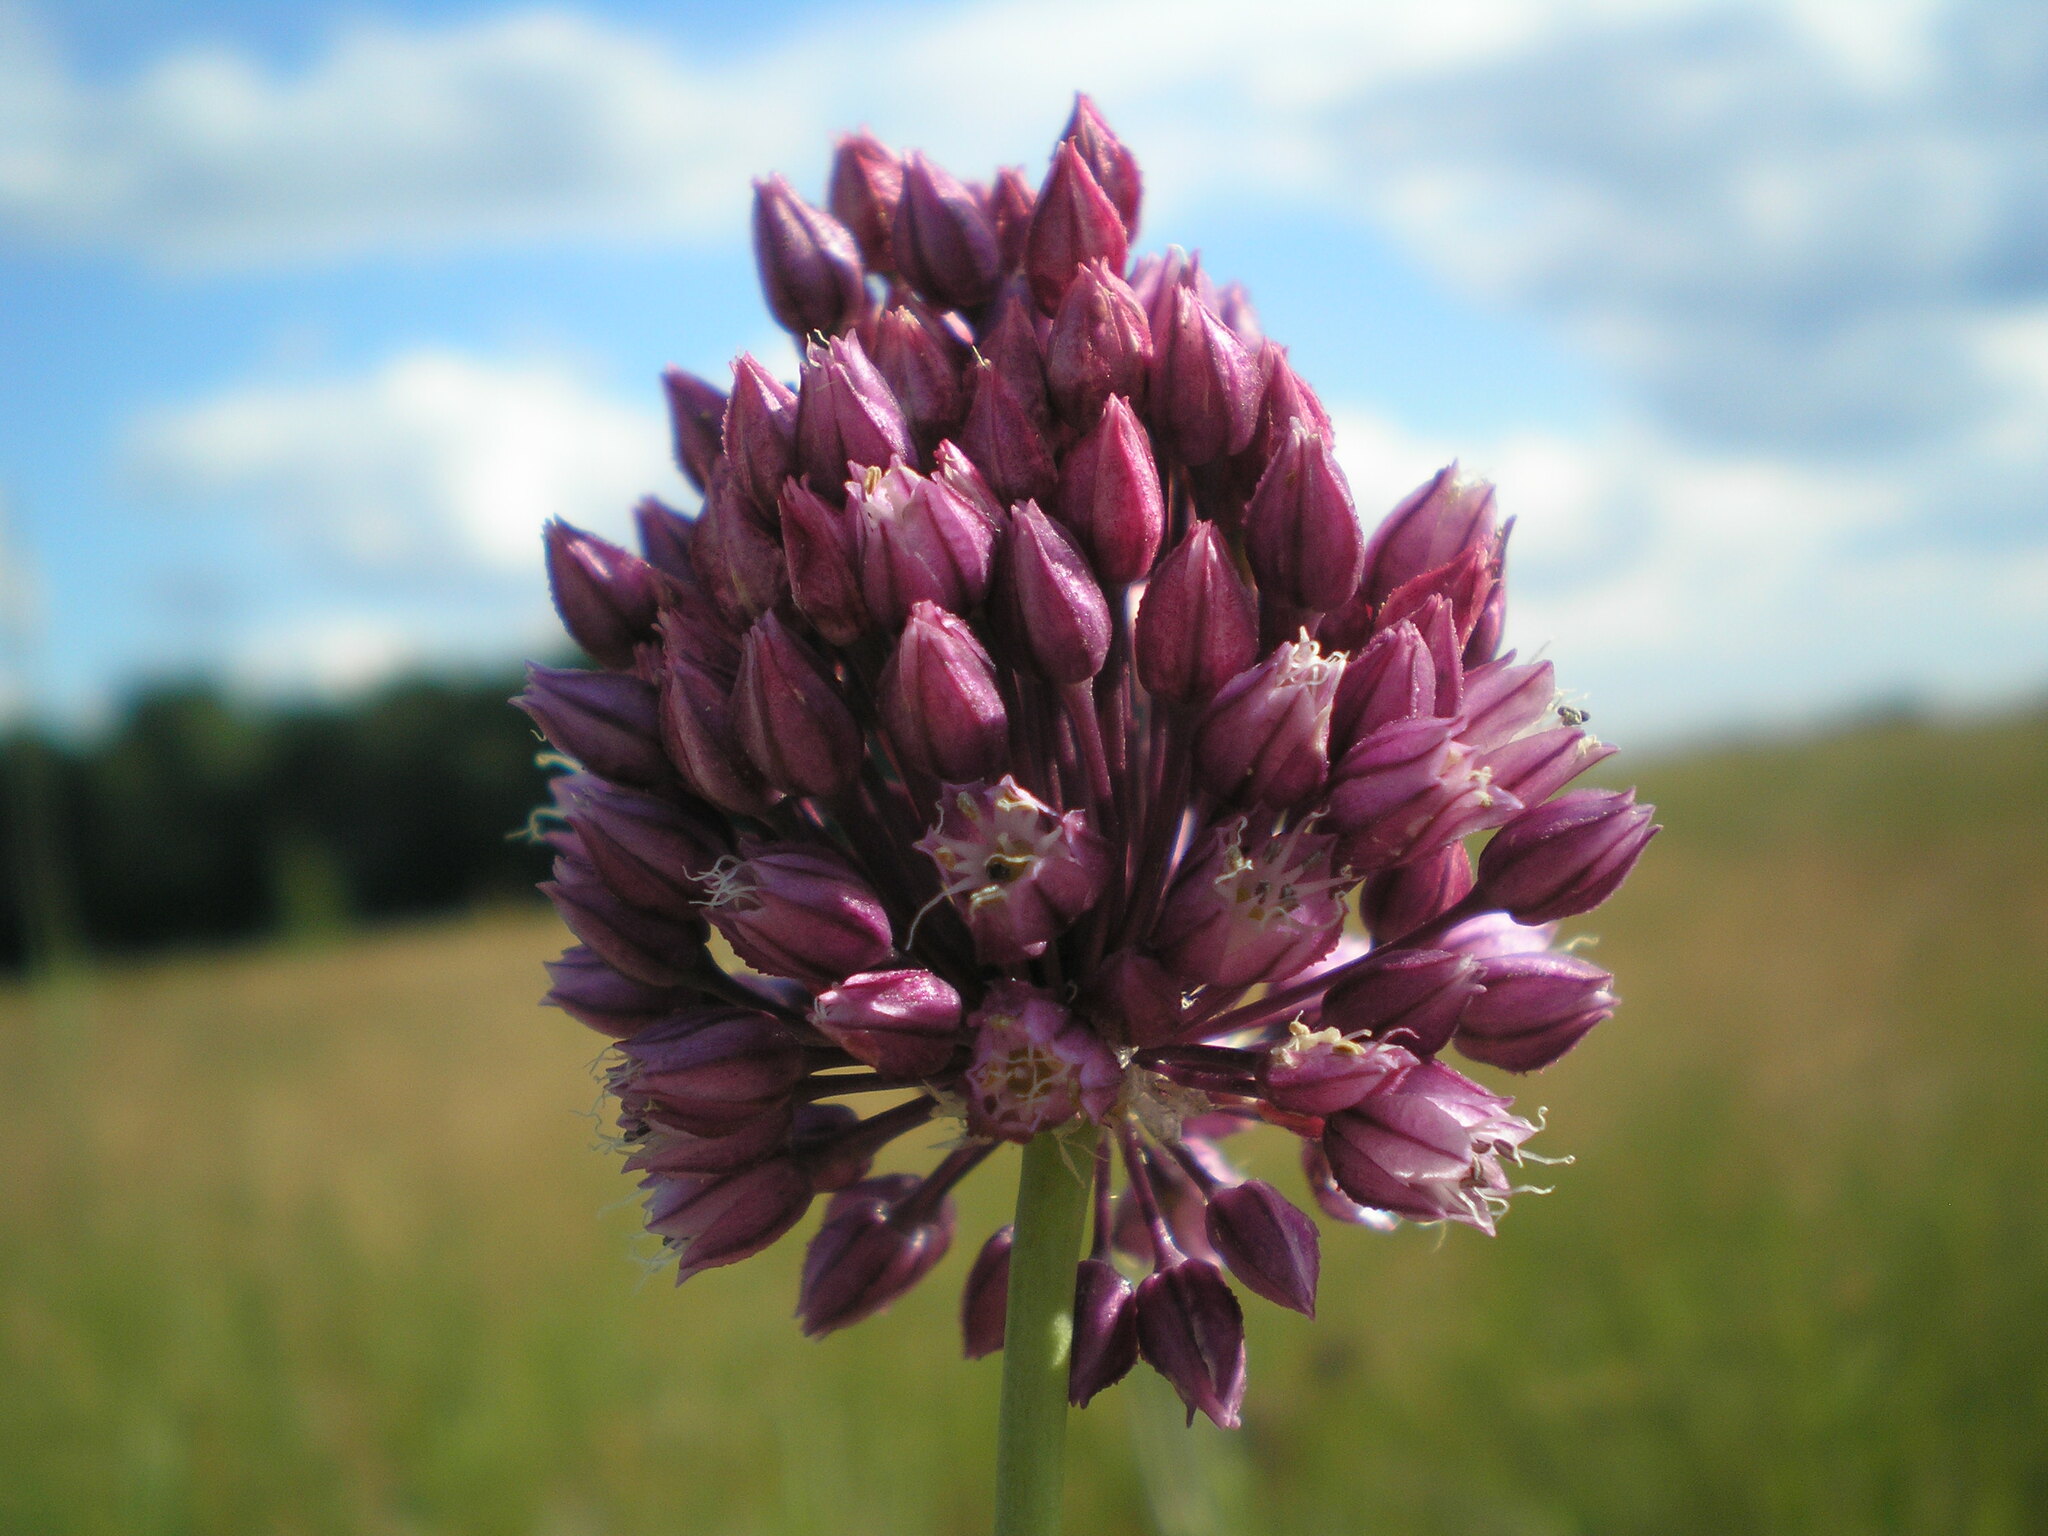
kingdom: Plantae
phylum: Tracheophyta
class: Liliopsida
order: Asparagales
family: Amaryllidaceae
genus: Allium
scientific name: Allium rotundum
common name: Sand leek
